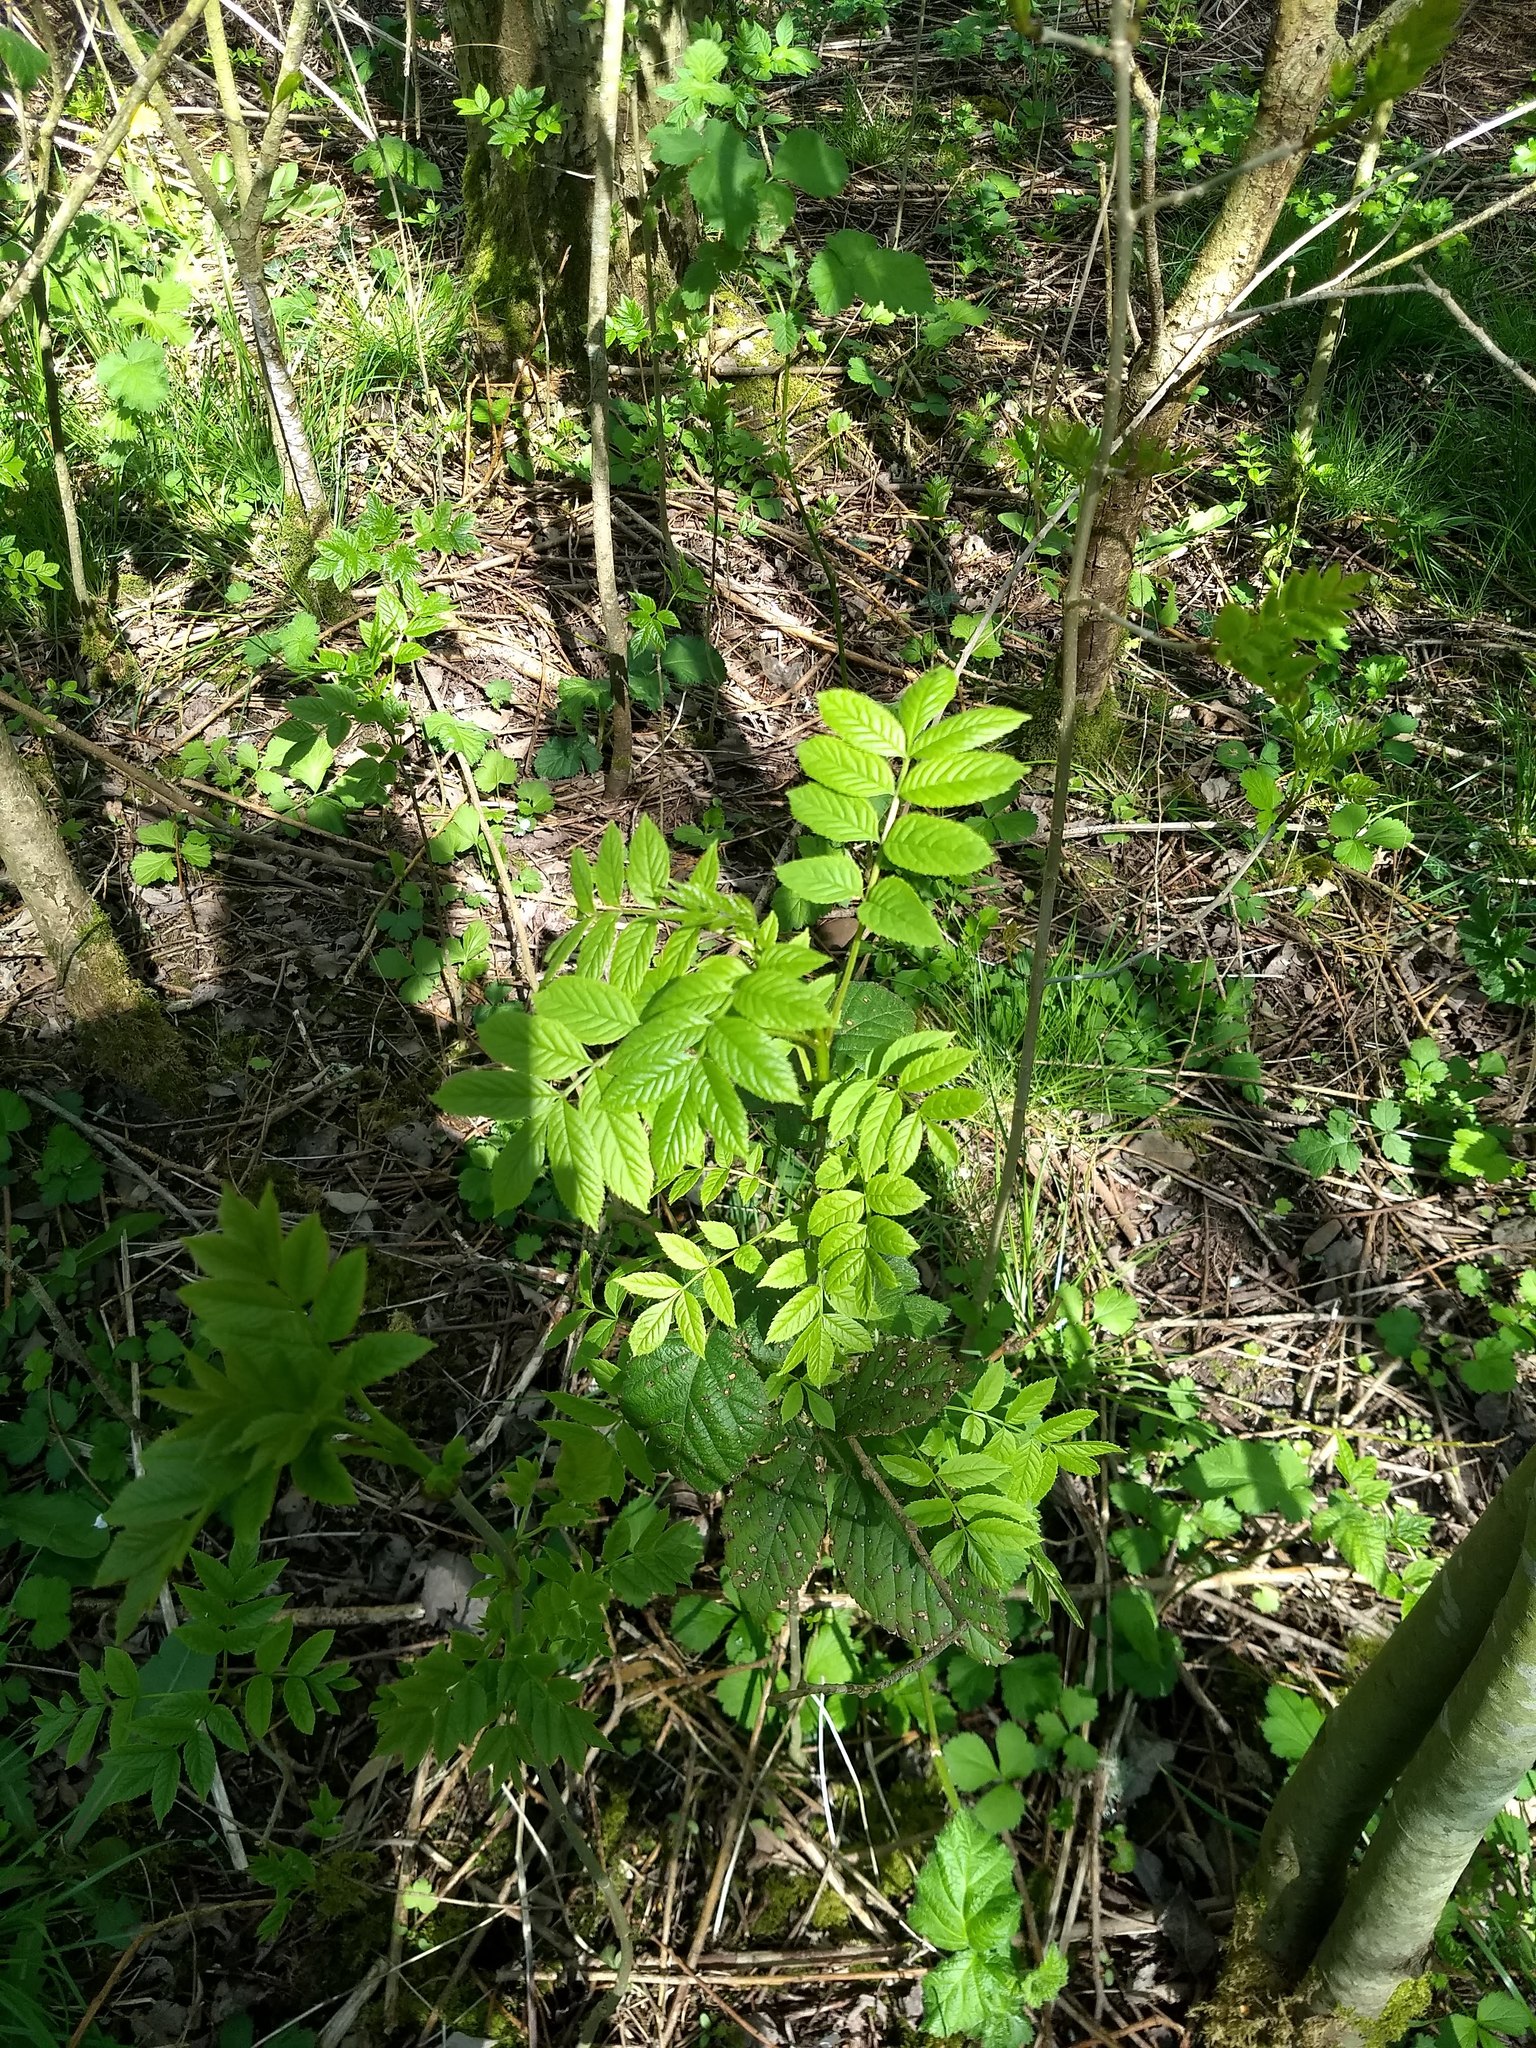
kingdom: Plantae
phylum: Tracheophyta
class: Magnoliopsida
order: Lamiales
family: Oleaceae
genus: Fraxinus
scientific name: Fraxinus excelsior
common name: European ash
